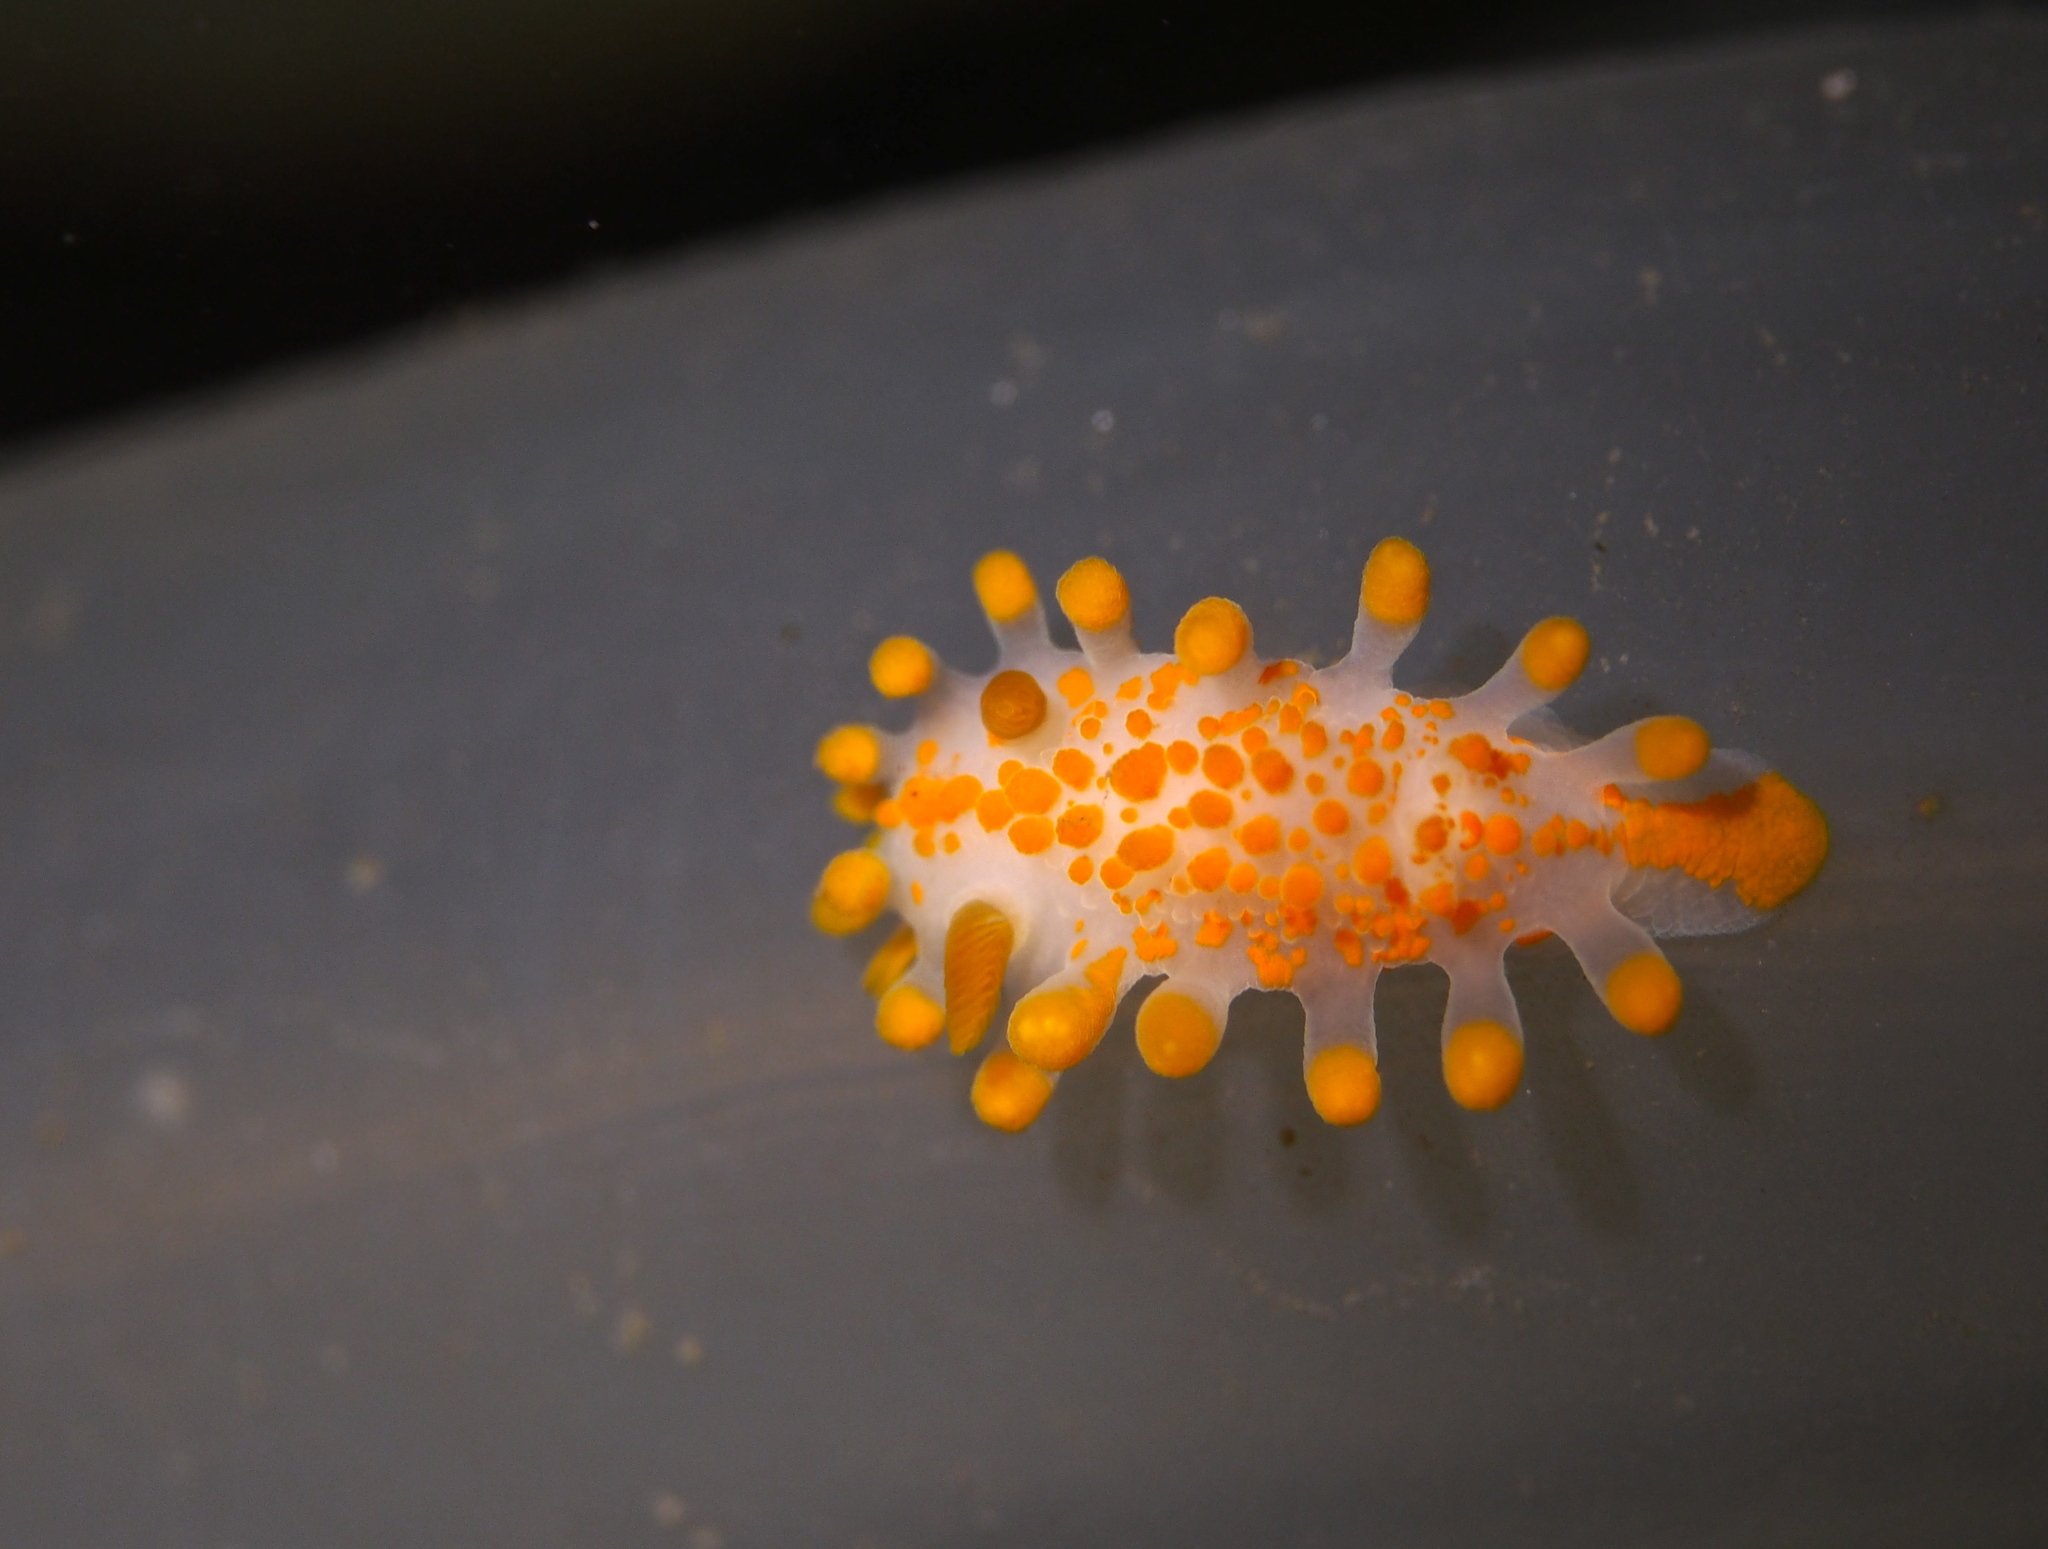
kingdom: Animalia
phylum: Mollusca
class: Gastropoda
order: Nudibranchia
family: Polyceridae
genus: Limacia
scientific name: Limacia clavigera
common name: Orange-clubbed sea slug
